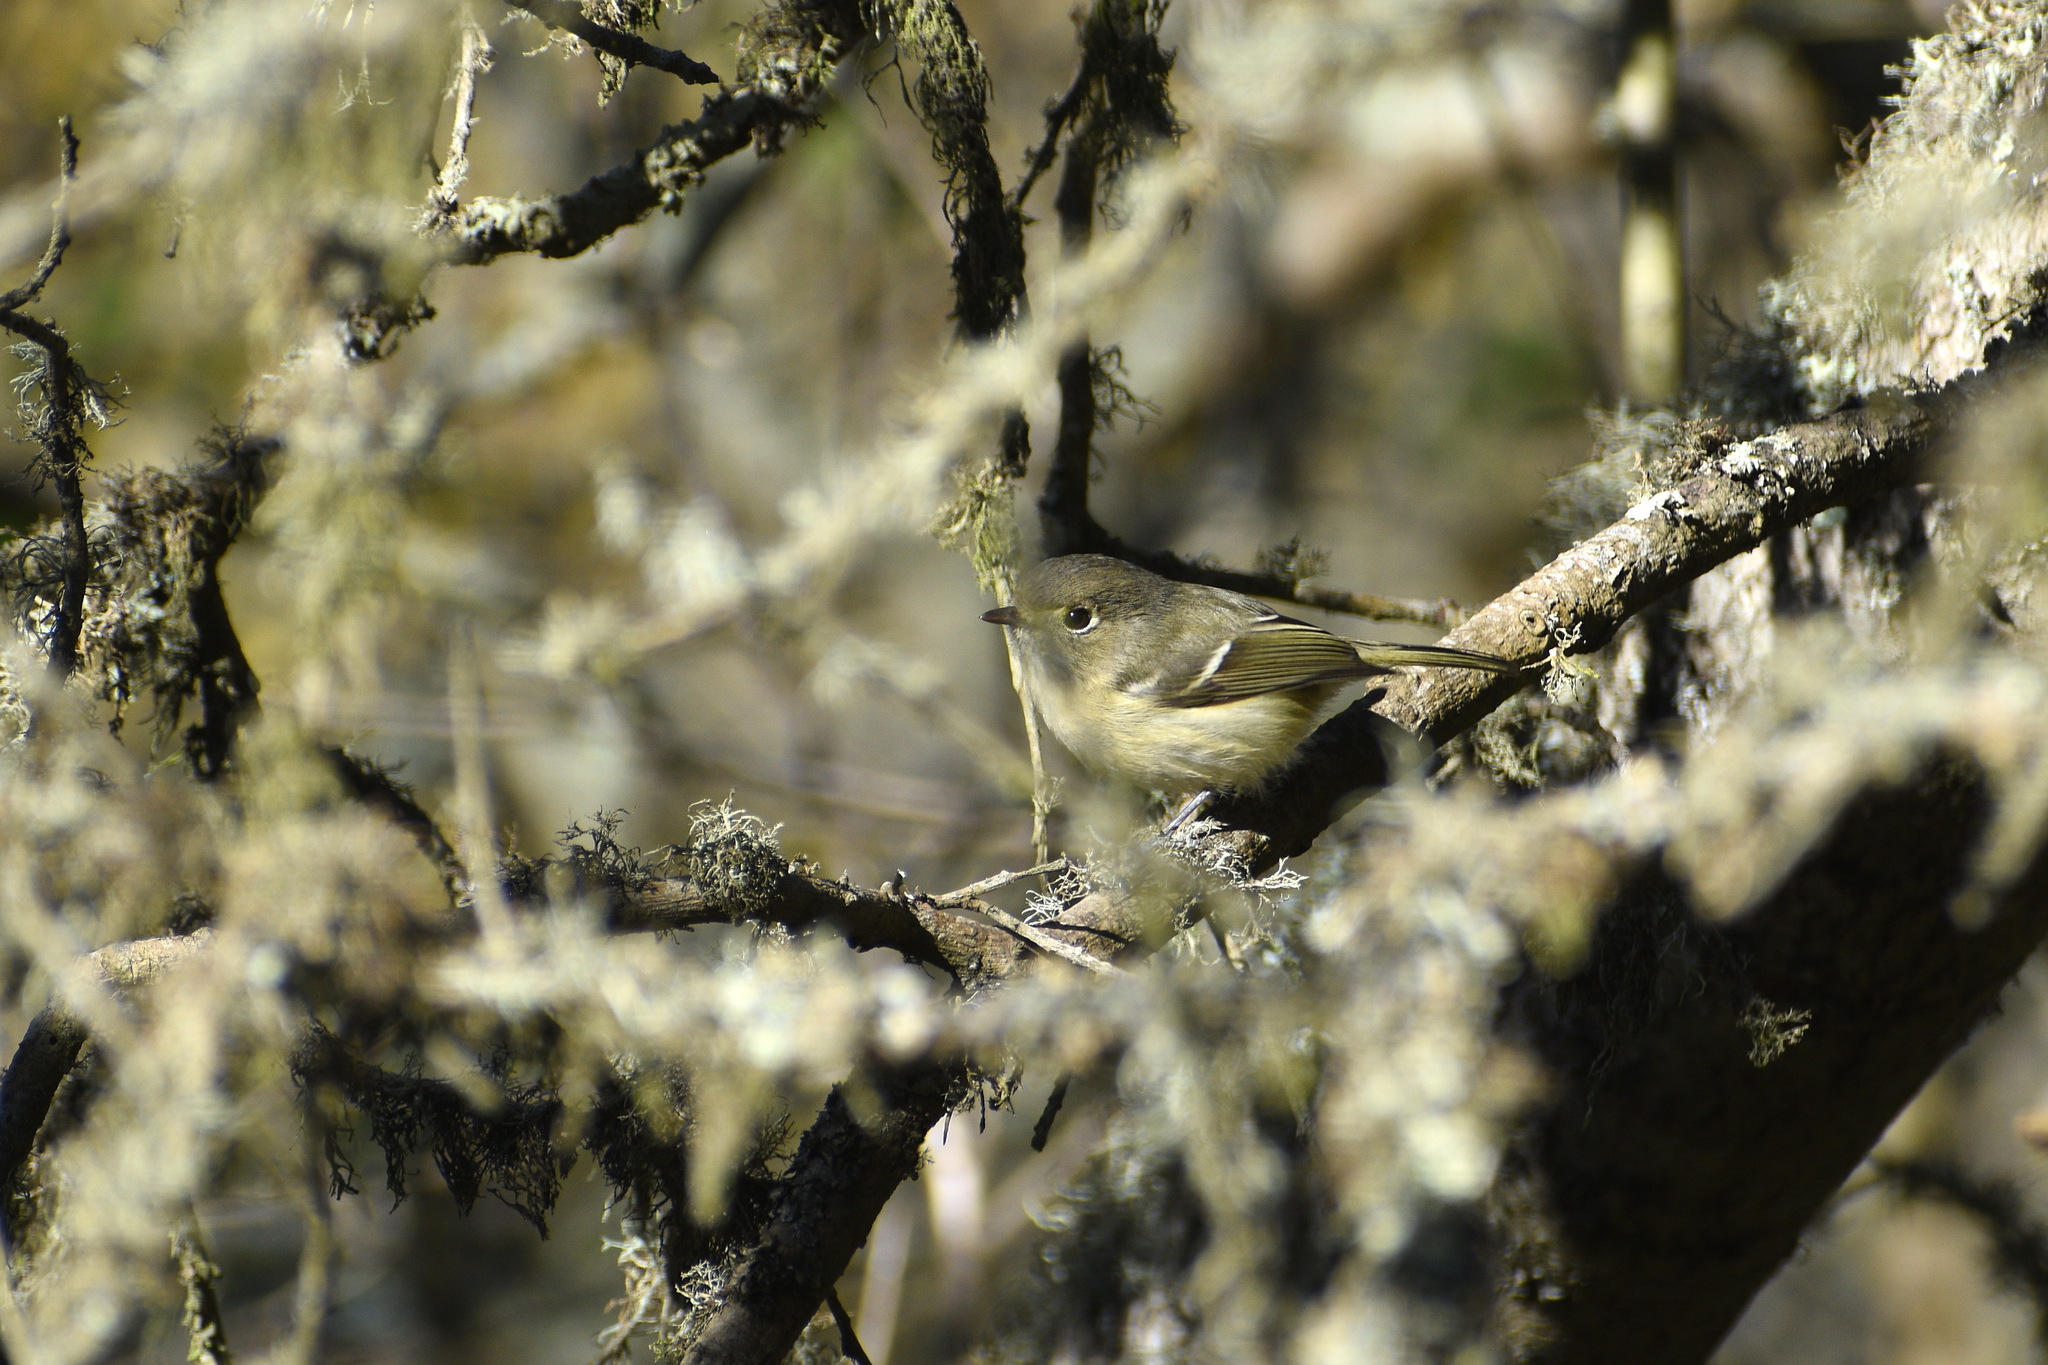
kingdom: Animalia
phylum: Chordata
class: Aves
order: Passeriformes
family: Vireonidae
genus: Vireo
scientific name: Vireo huttoni
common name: Hutton's vireo
